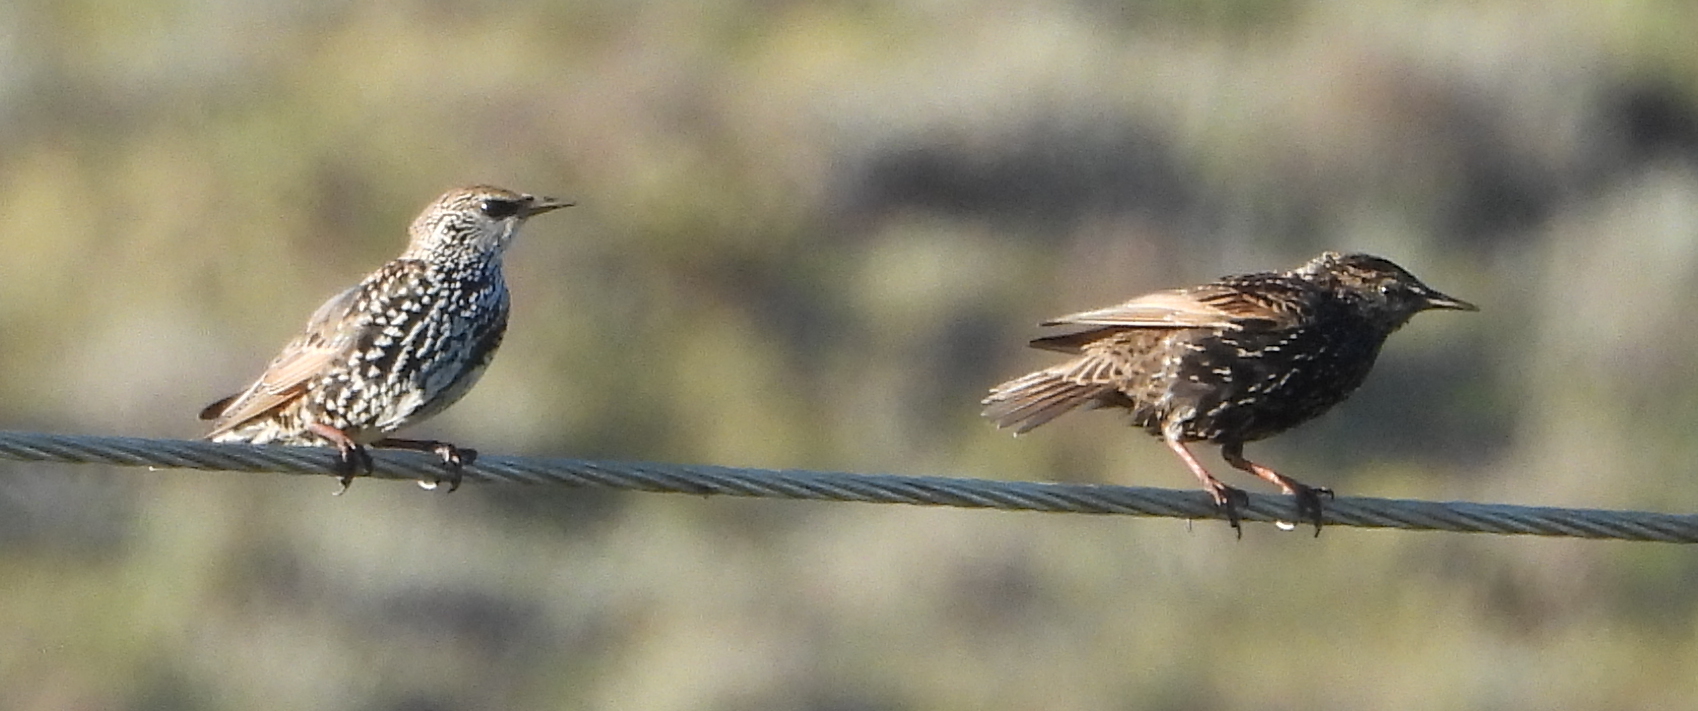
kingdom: Animalia
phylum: Chordata
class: Aves
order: Passeriformes
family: Sturnidae
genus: Sturnus
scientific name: Sturnus vulgaris
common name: Common starling
